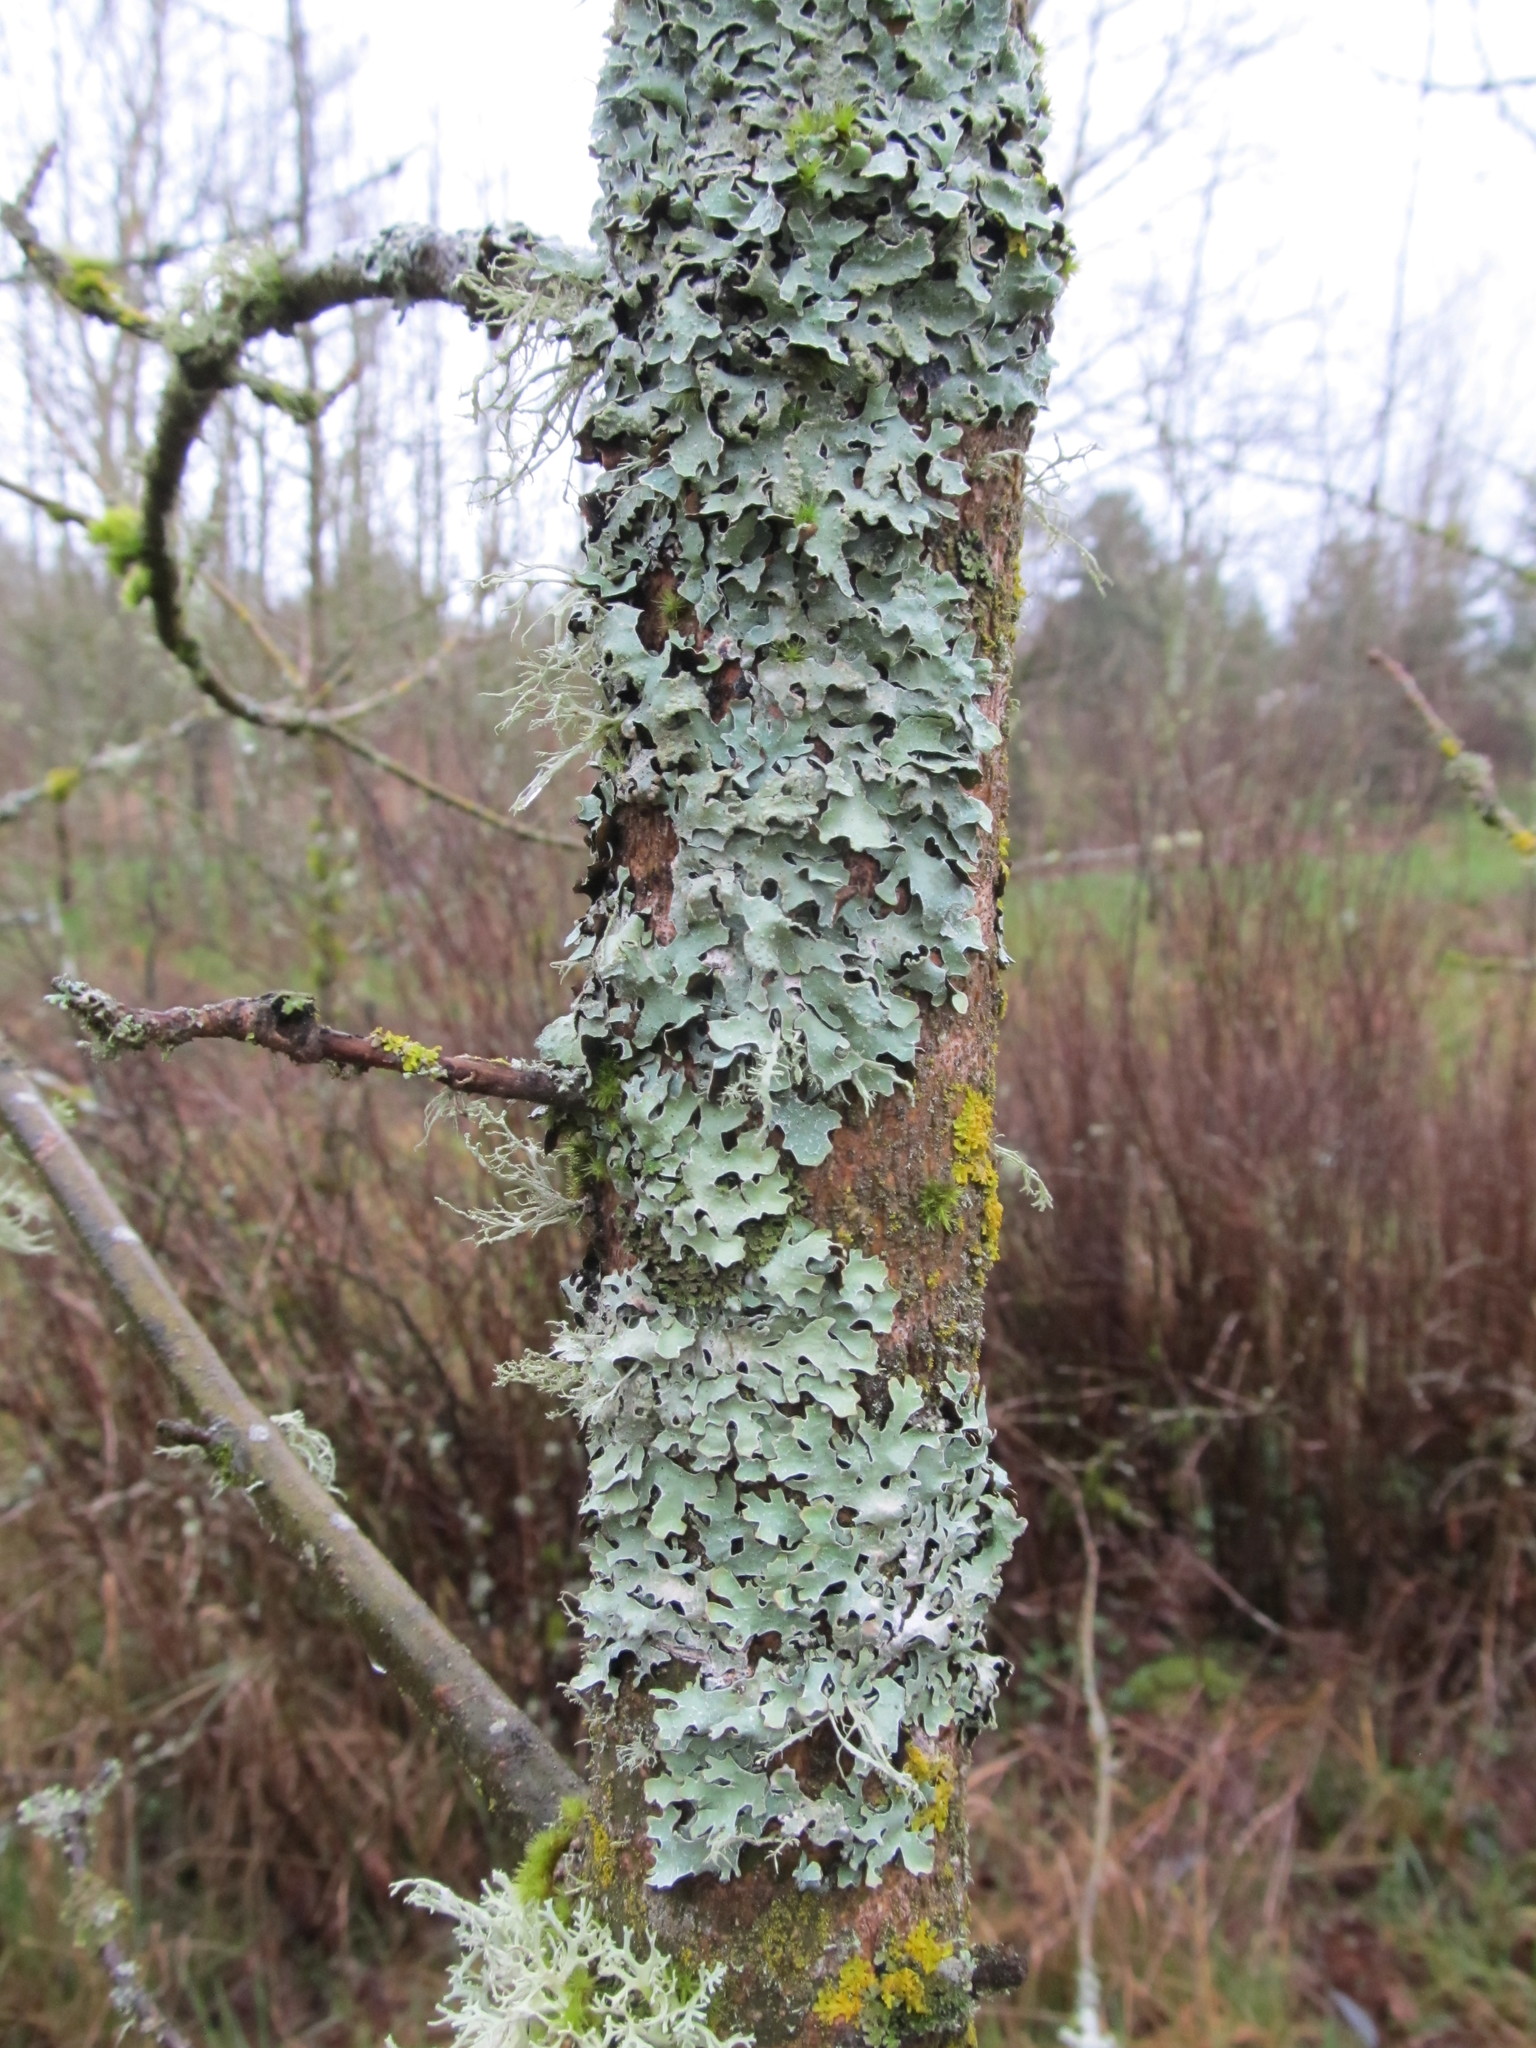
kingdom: Fungi
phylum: Ascomycota
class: Lecanoromycetes
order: Lecanorales
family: Parmeliaceae
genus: Parmelia
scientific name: Parmelia sulcata
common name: Netted shield lichen
